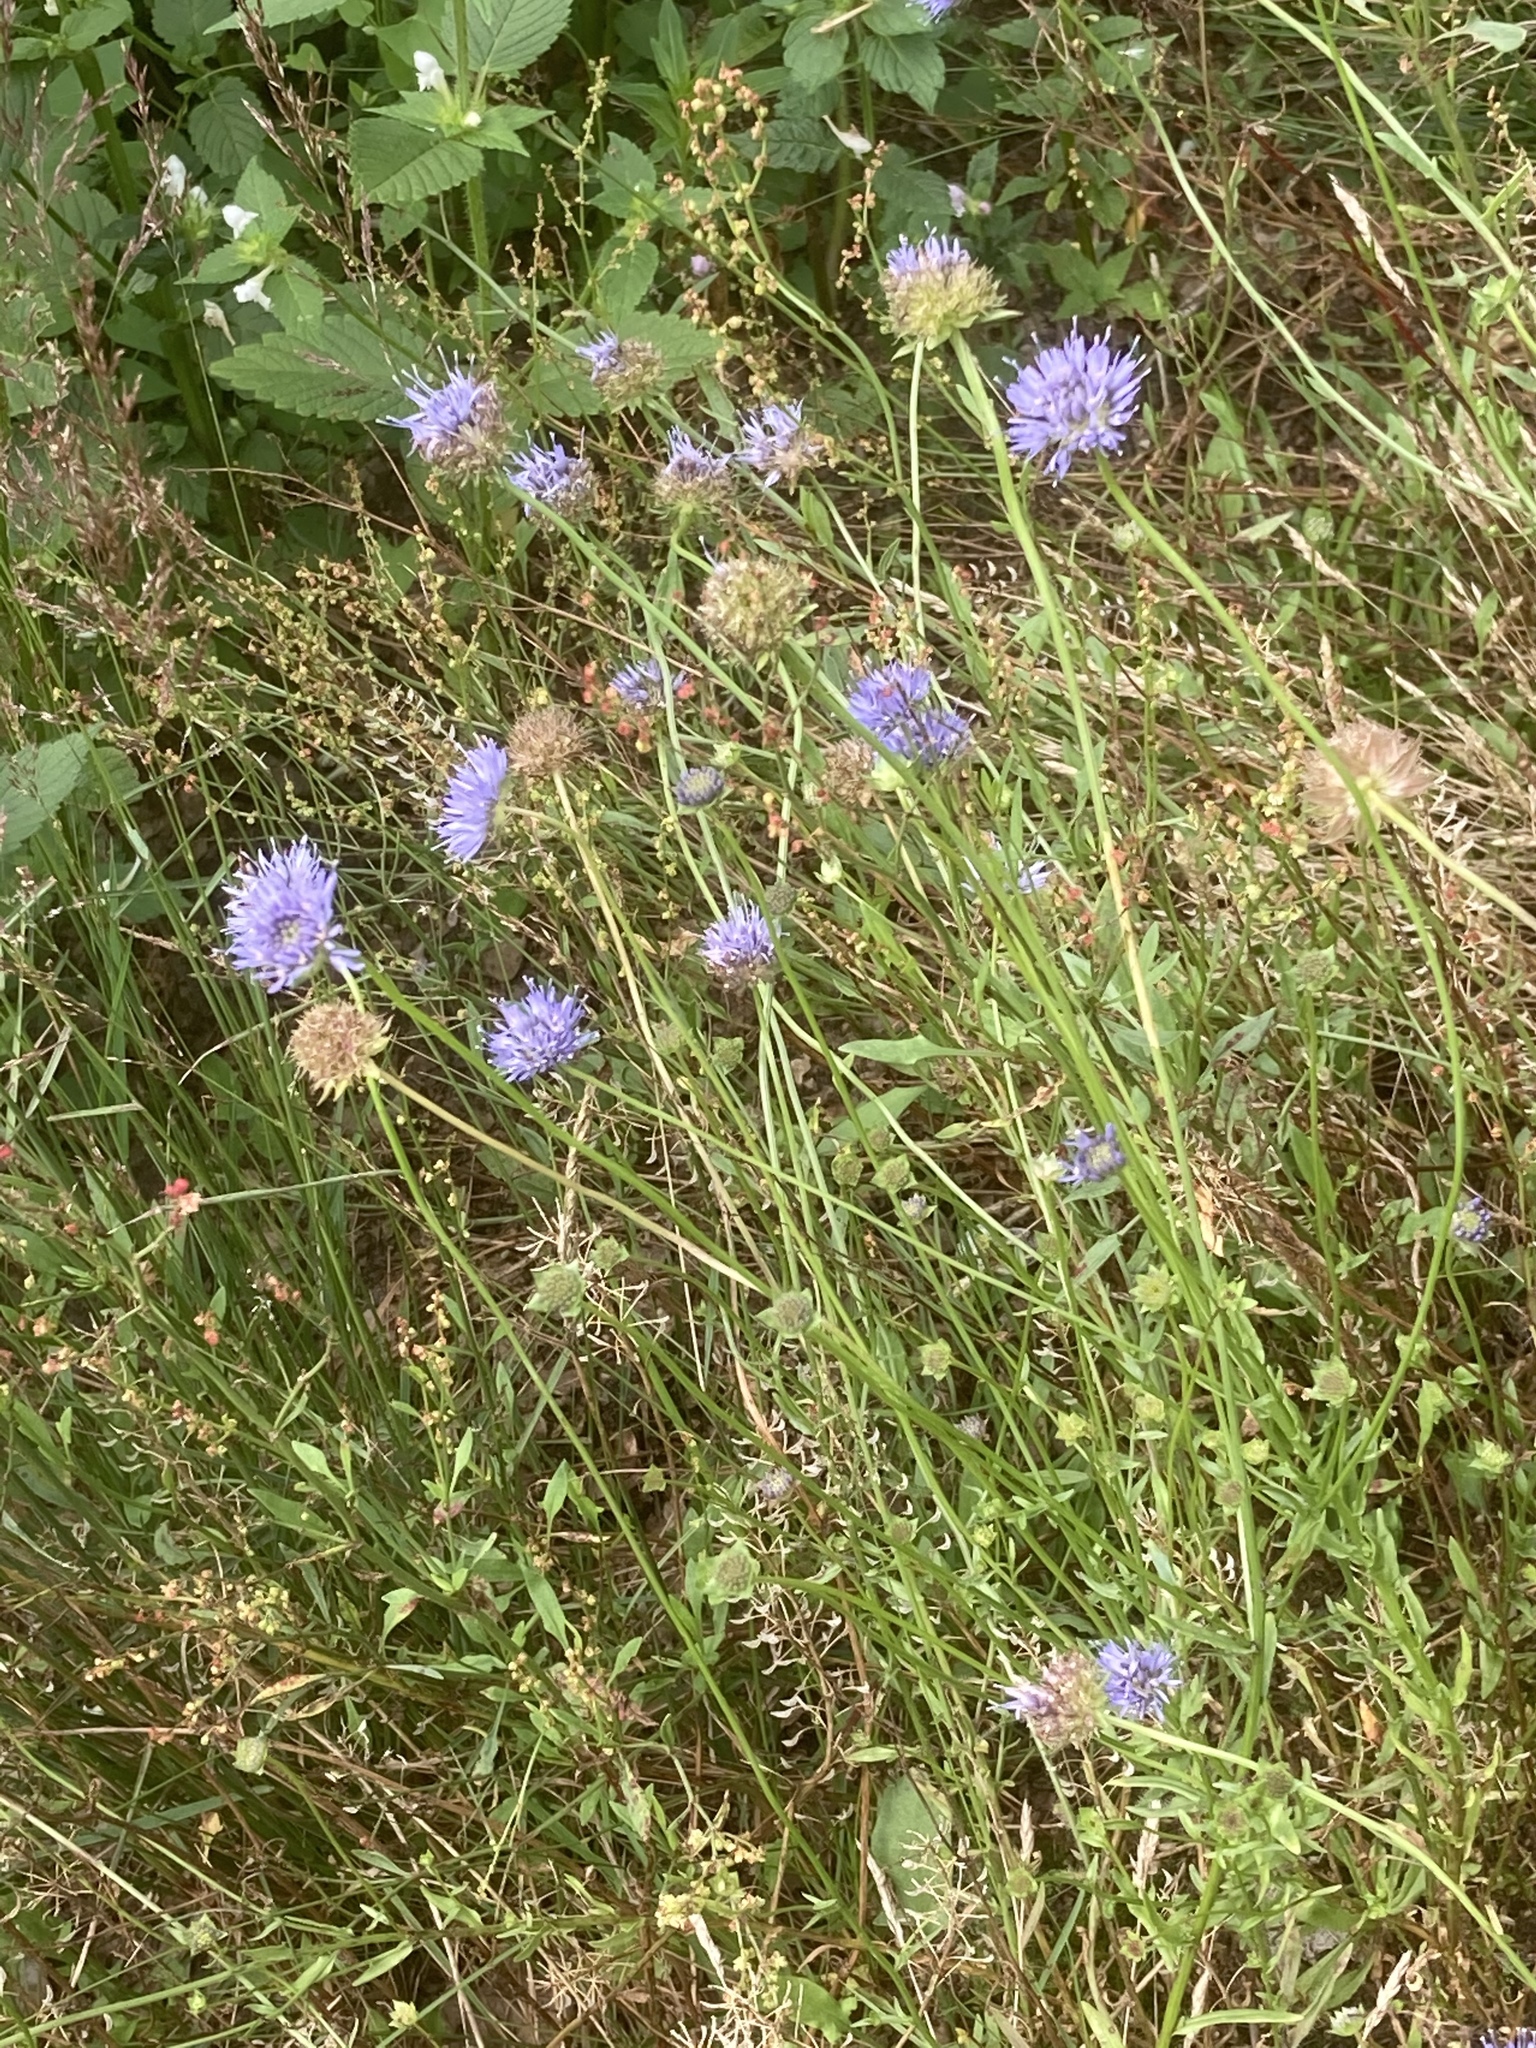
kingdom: Plantae
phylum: Tracheophyta
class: Magnoliopsida
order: Asterales
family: Campanulaceae
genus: Jasione
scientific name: Jasione montana
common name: Sheep's-bit
